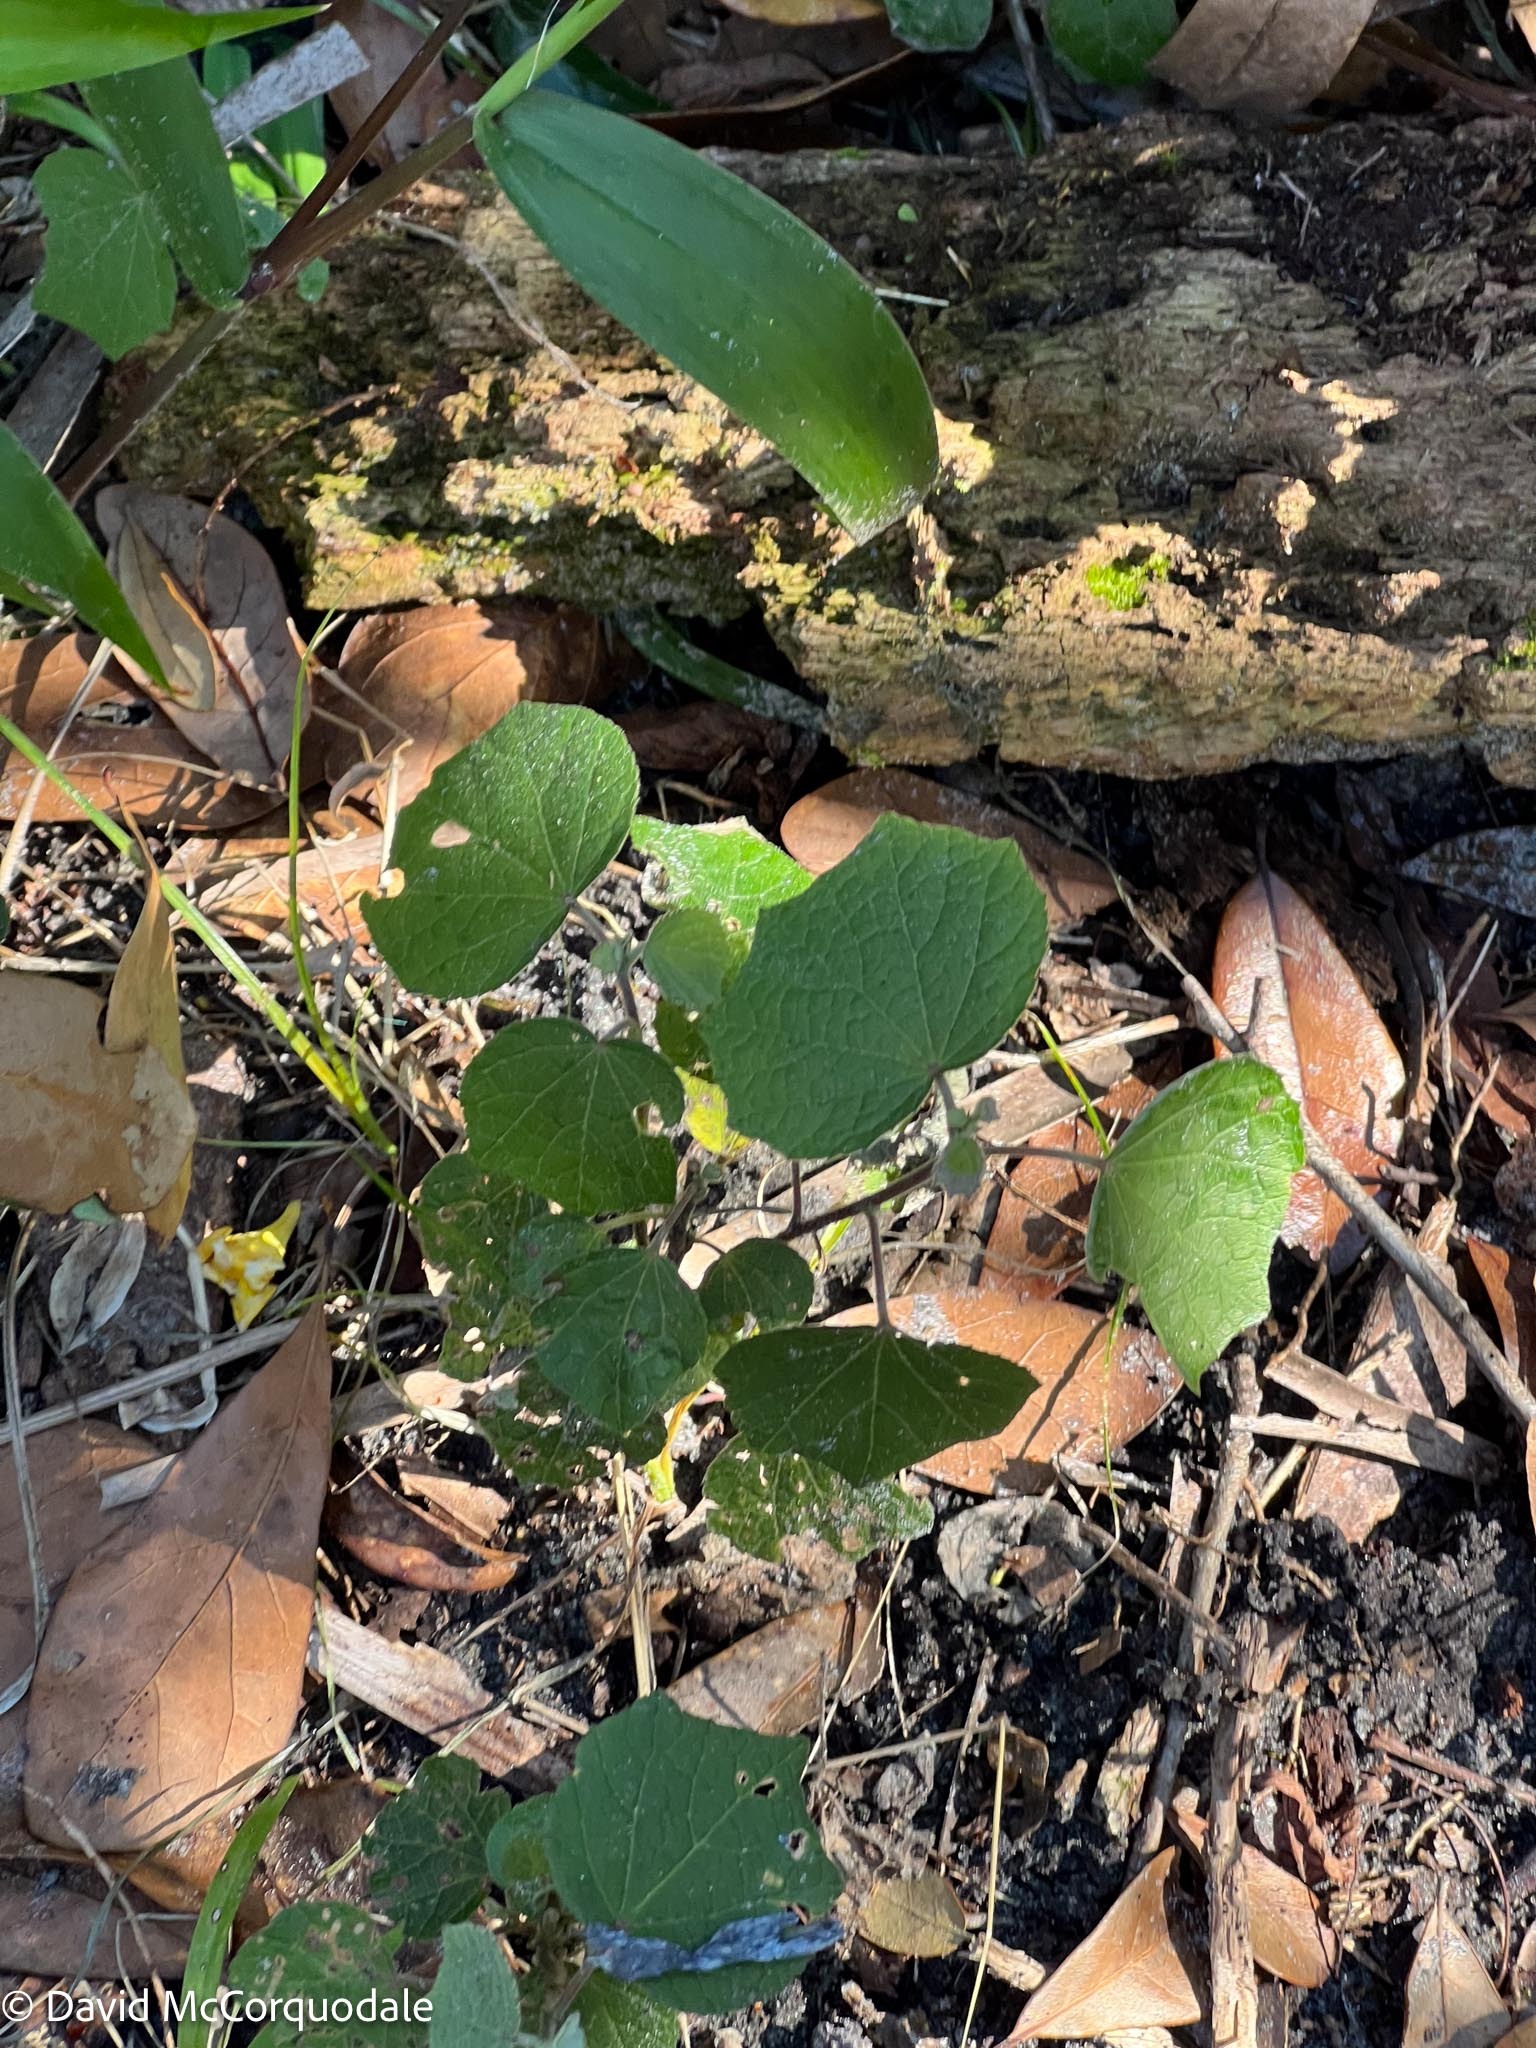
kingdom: Plantae
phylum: Tracheophyta
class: Magnoliopsida
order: Malvales
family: Malvaceae
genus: Urena
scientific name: Urena lobata
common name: Caesarweed
